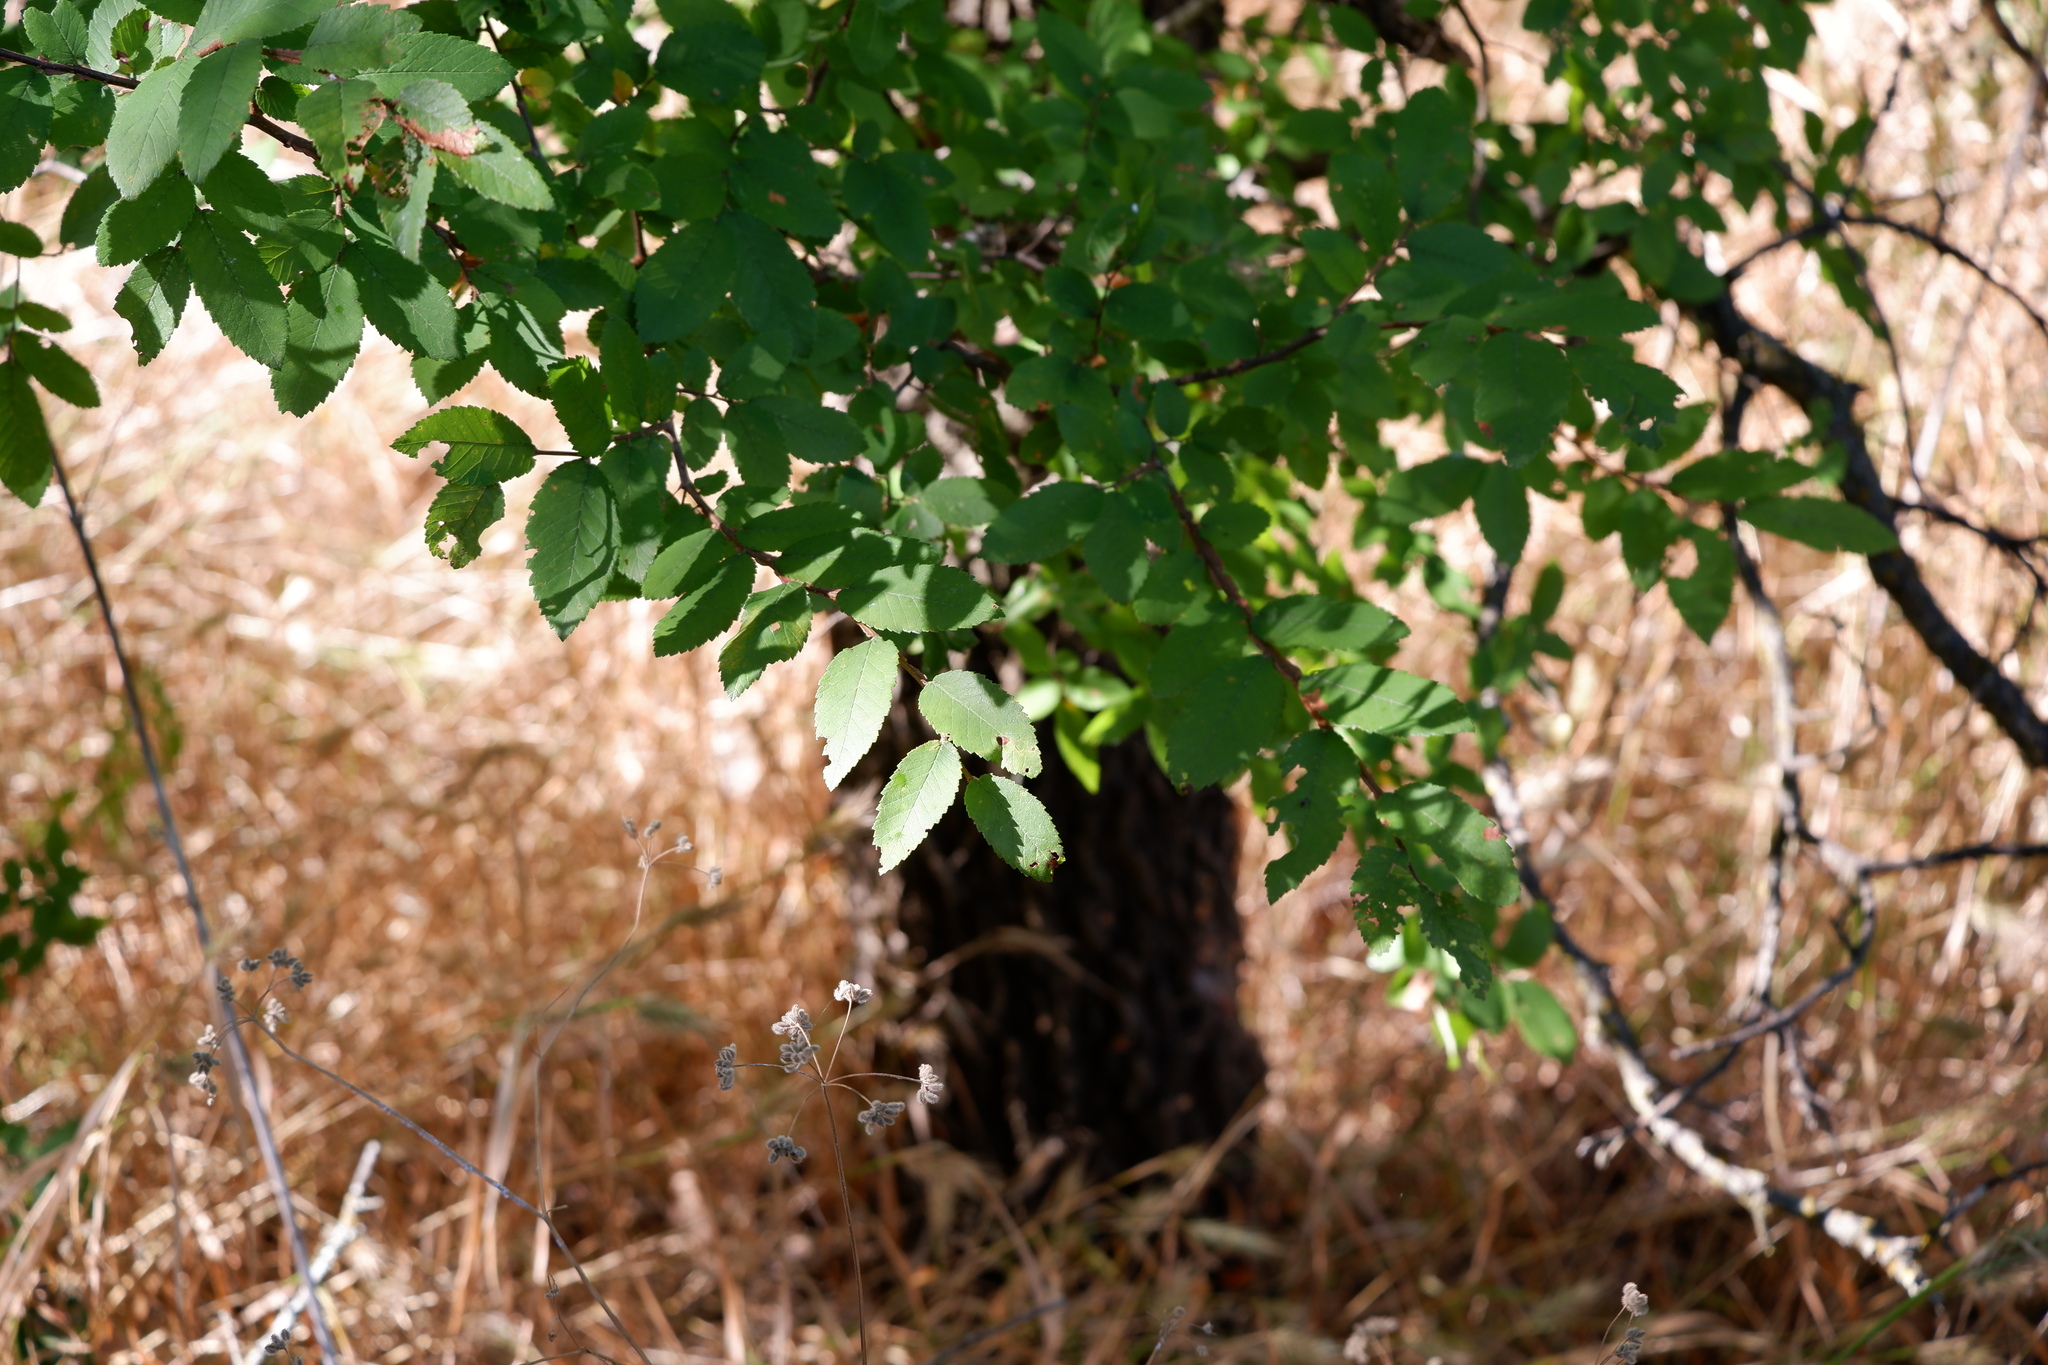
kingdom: Plantae
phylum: Tracheophyta
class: Magnoliopsida
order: Rosales
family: Ulmaceae
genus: Ulmus
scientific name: Ulmus crassifolia
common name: Basket elm
